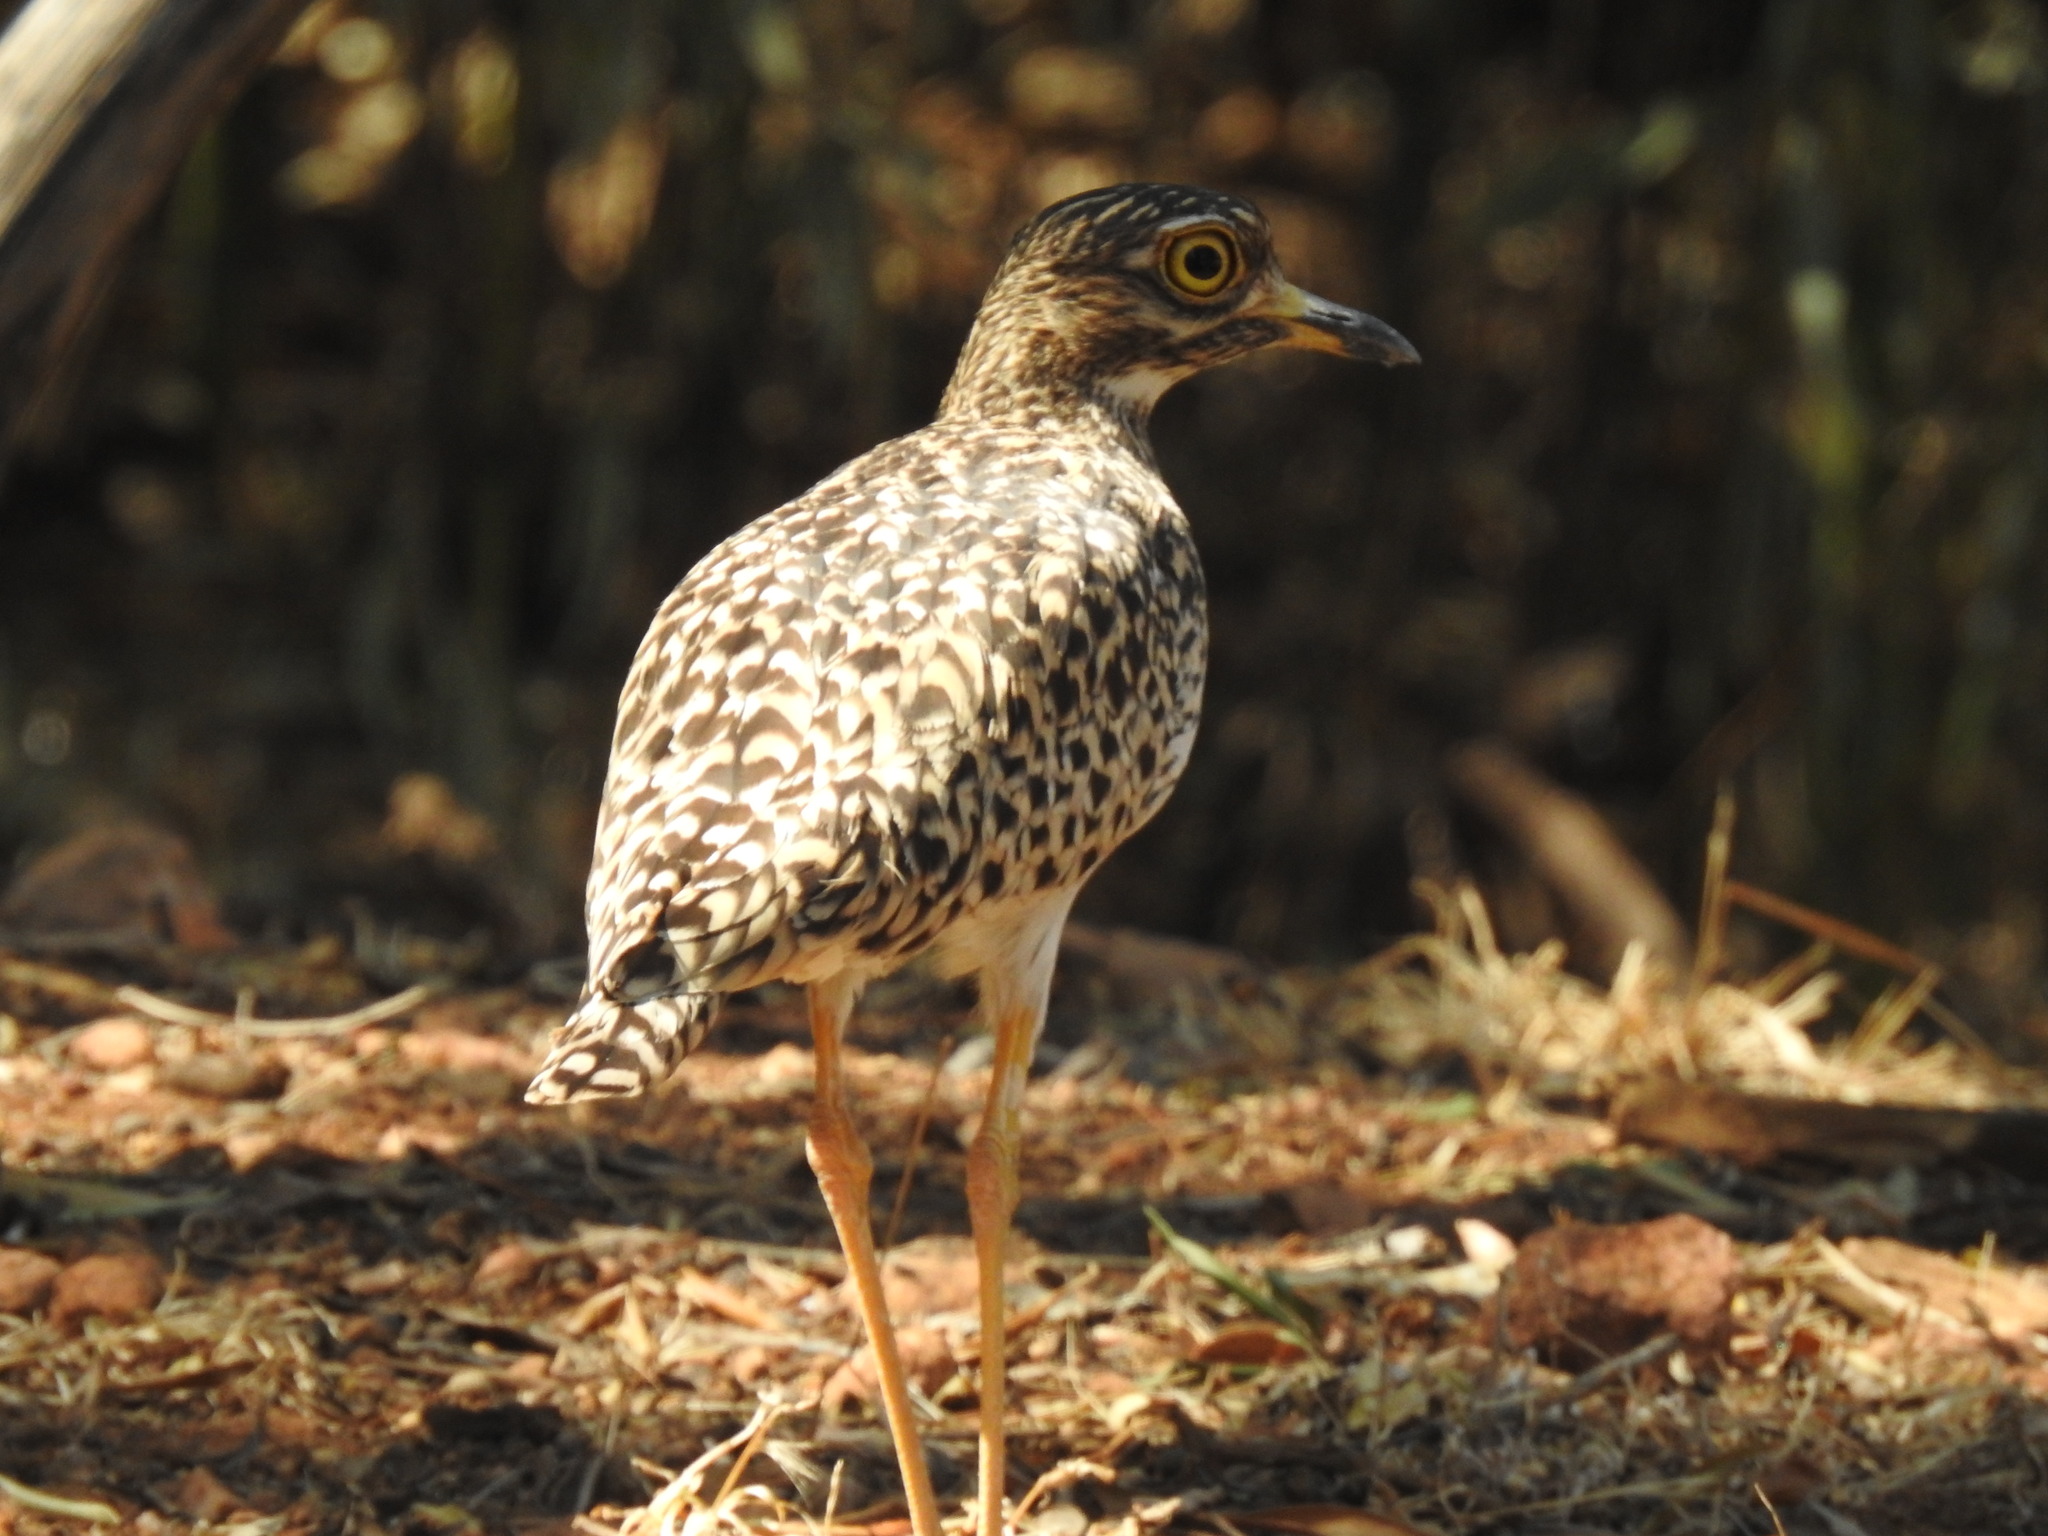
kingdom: Animalia
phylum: Chordata
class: Aves
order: Charadriiformes
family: Burhinidae
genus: Burhinus
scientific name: Burhinus capensis
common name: Spotted thick-knee
